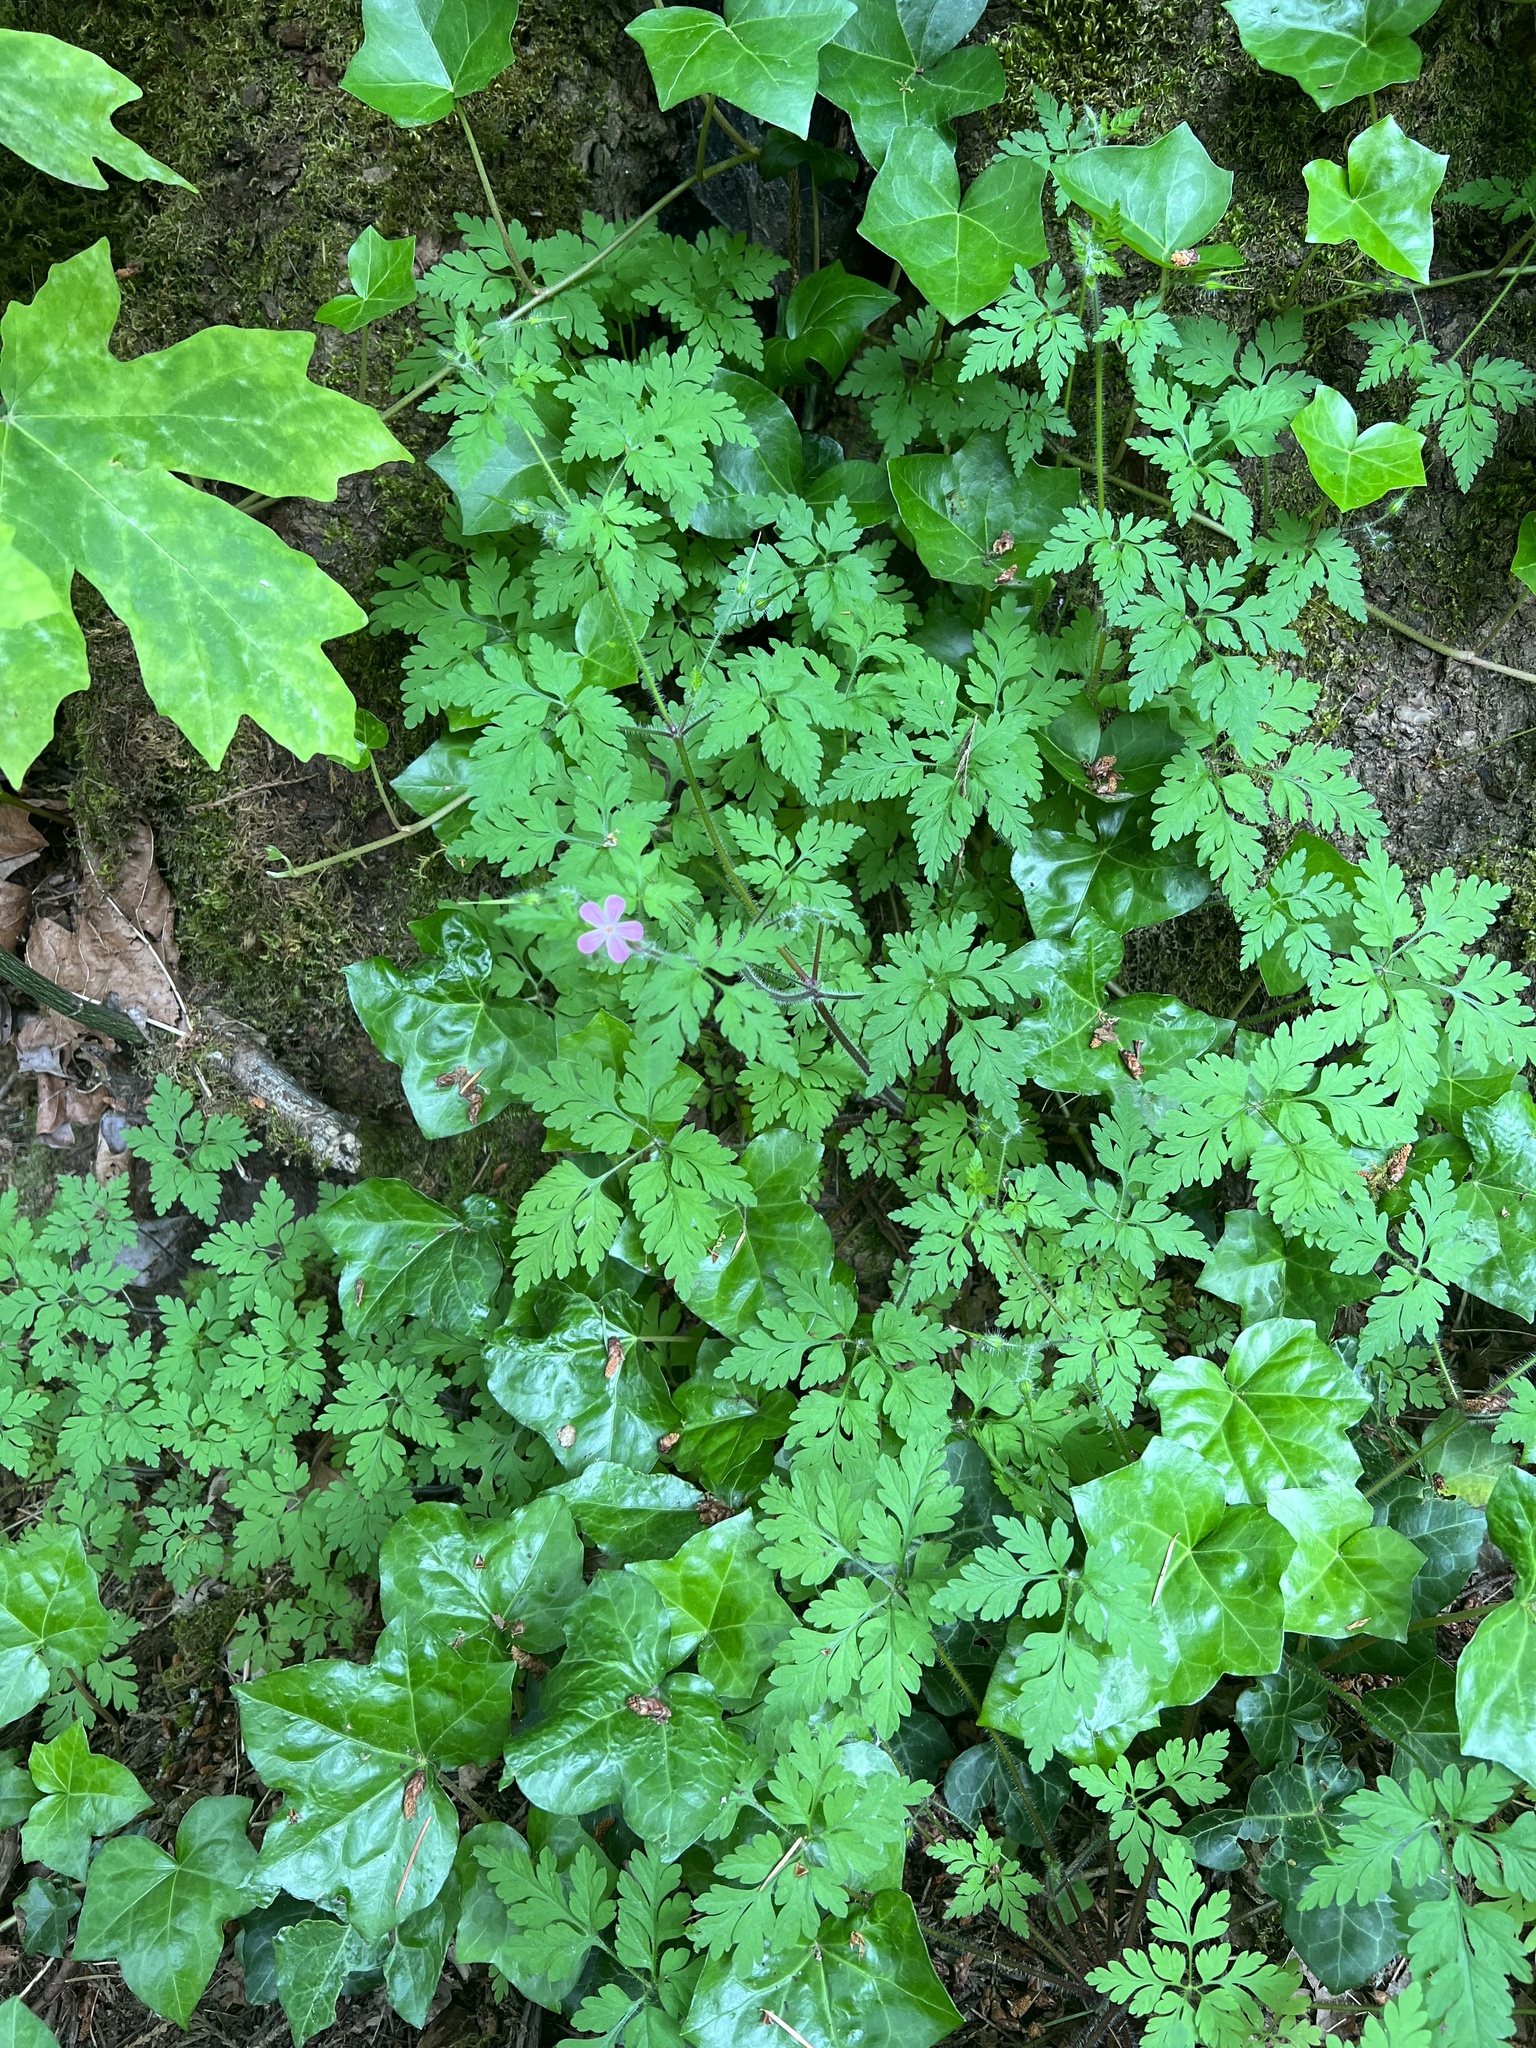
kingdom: Plantae
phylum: Tracheophyta
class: Magnoliopsida
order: Geraniales
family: Geraniaceae
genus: Geranium
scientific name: Geranium robertianum
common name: Herb-robert
